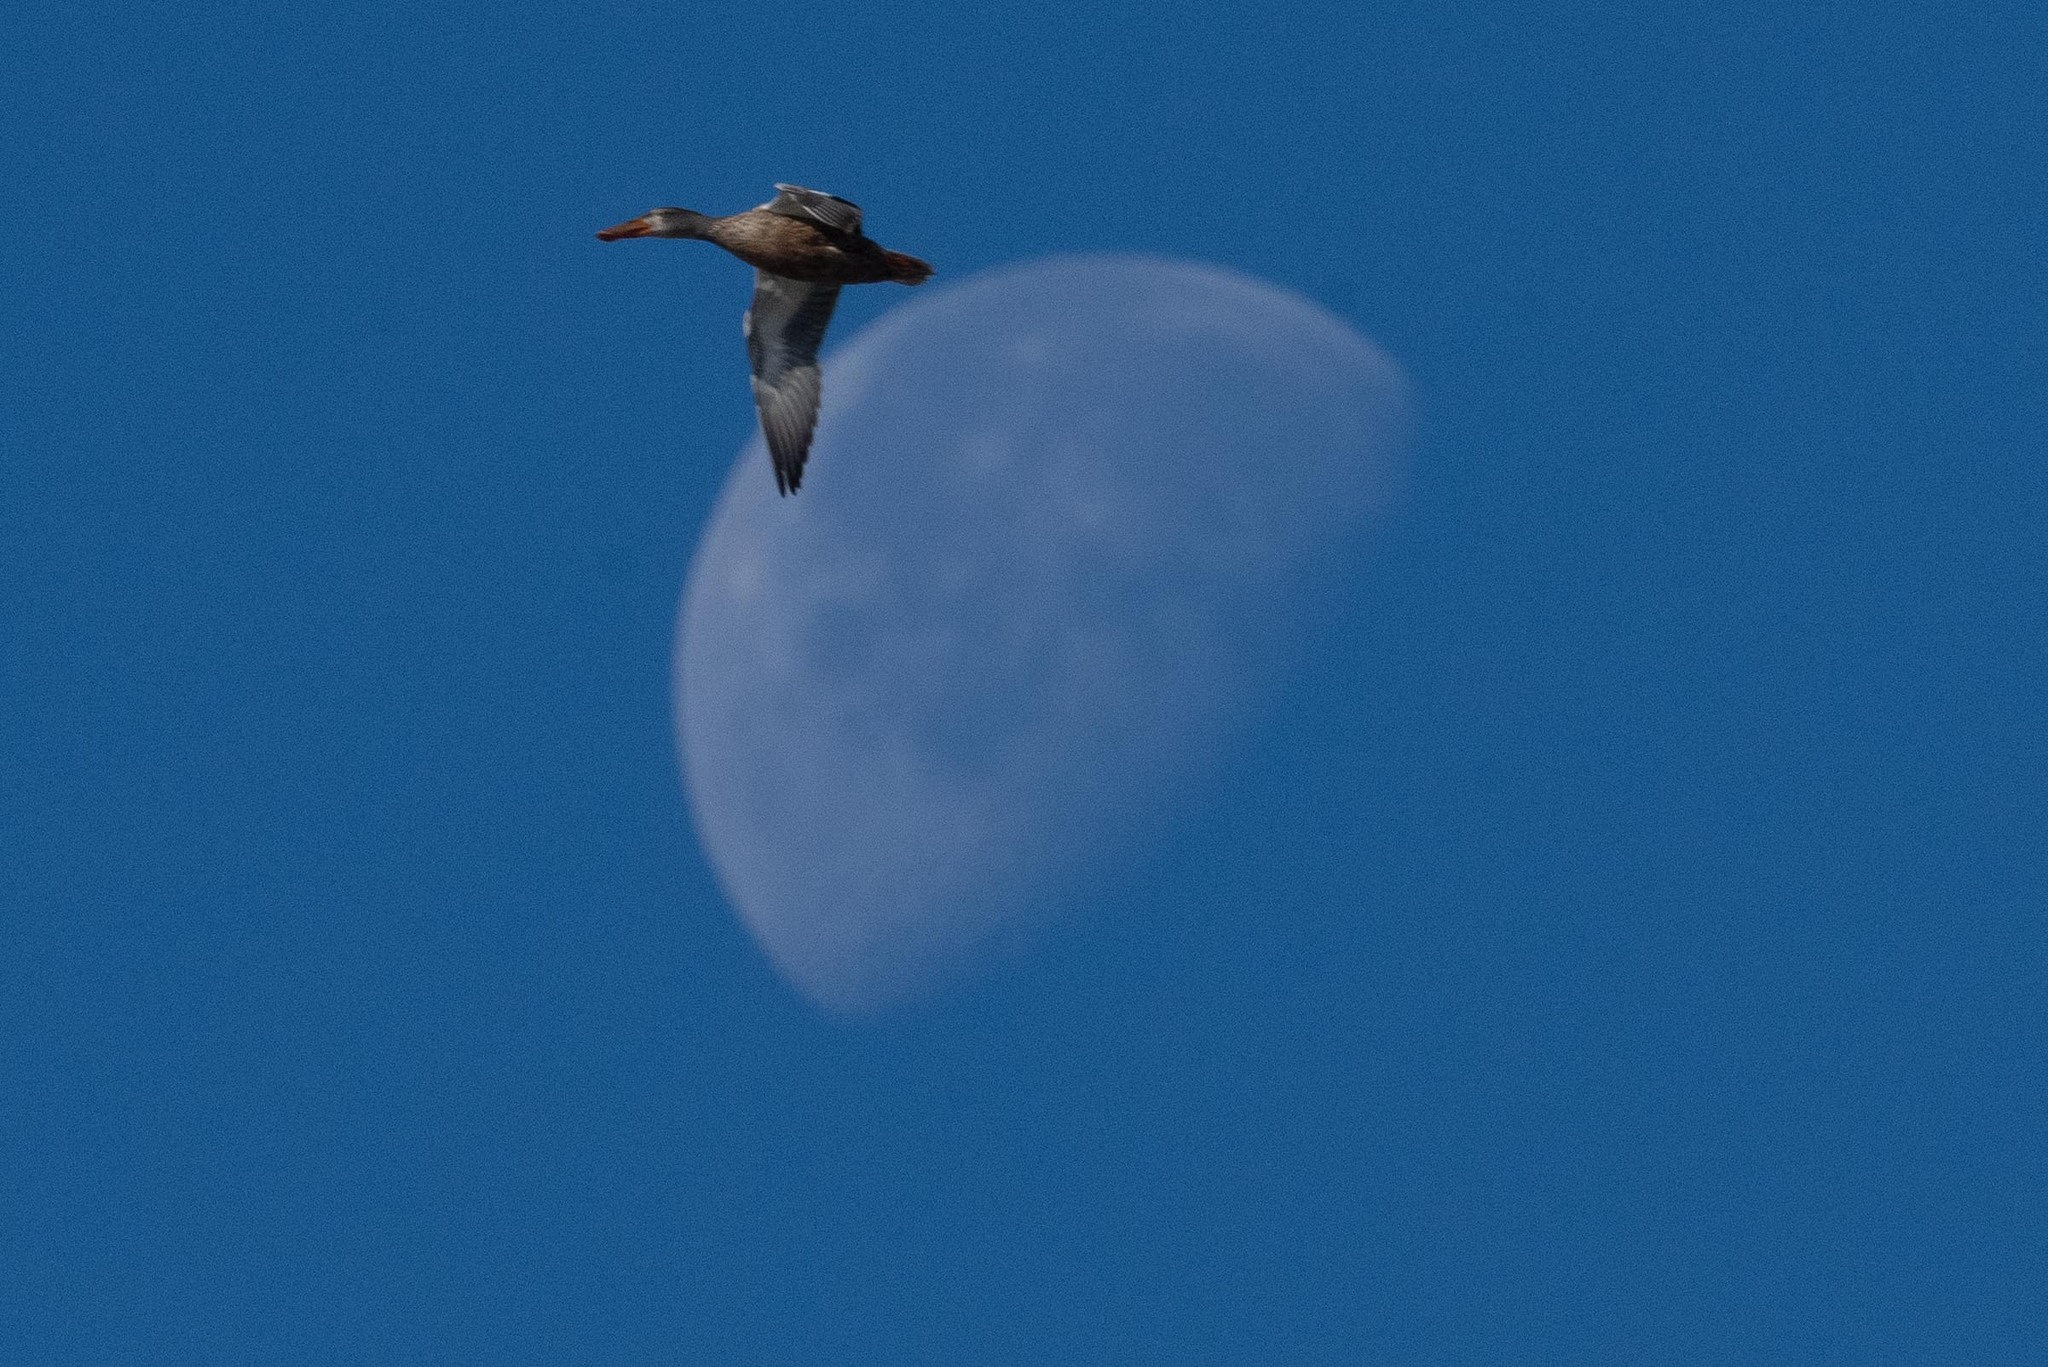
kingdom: Animalia
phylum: Chordata
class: Aves
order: Anseriformes
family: Anatidae
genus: Spatula
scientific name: Spatula clypeata
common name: Northern shoveler
